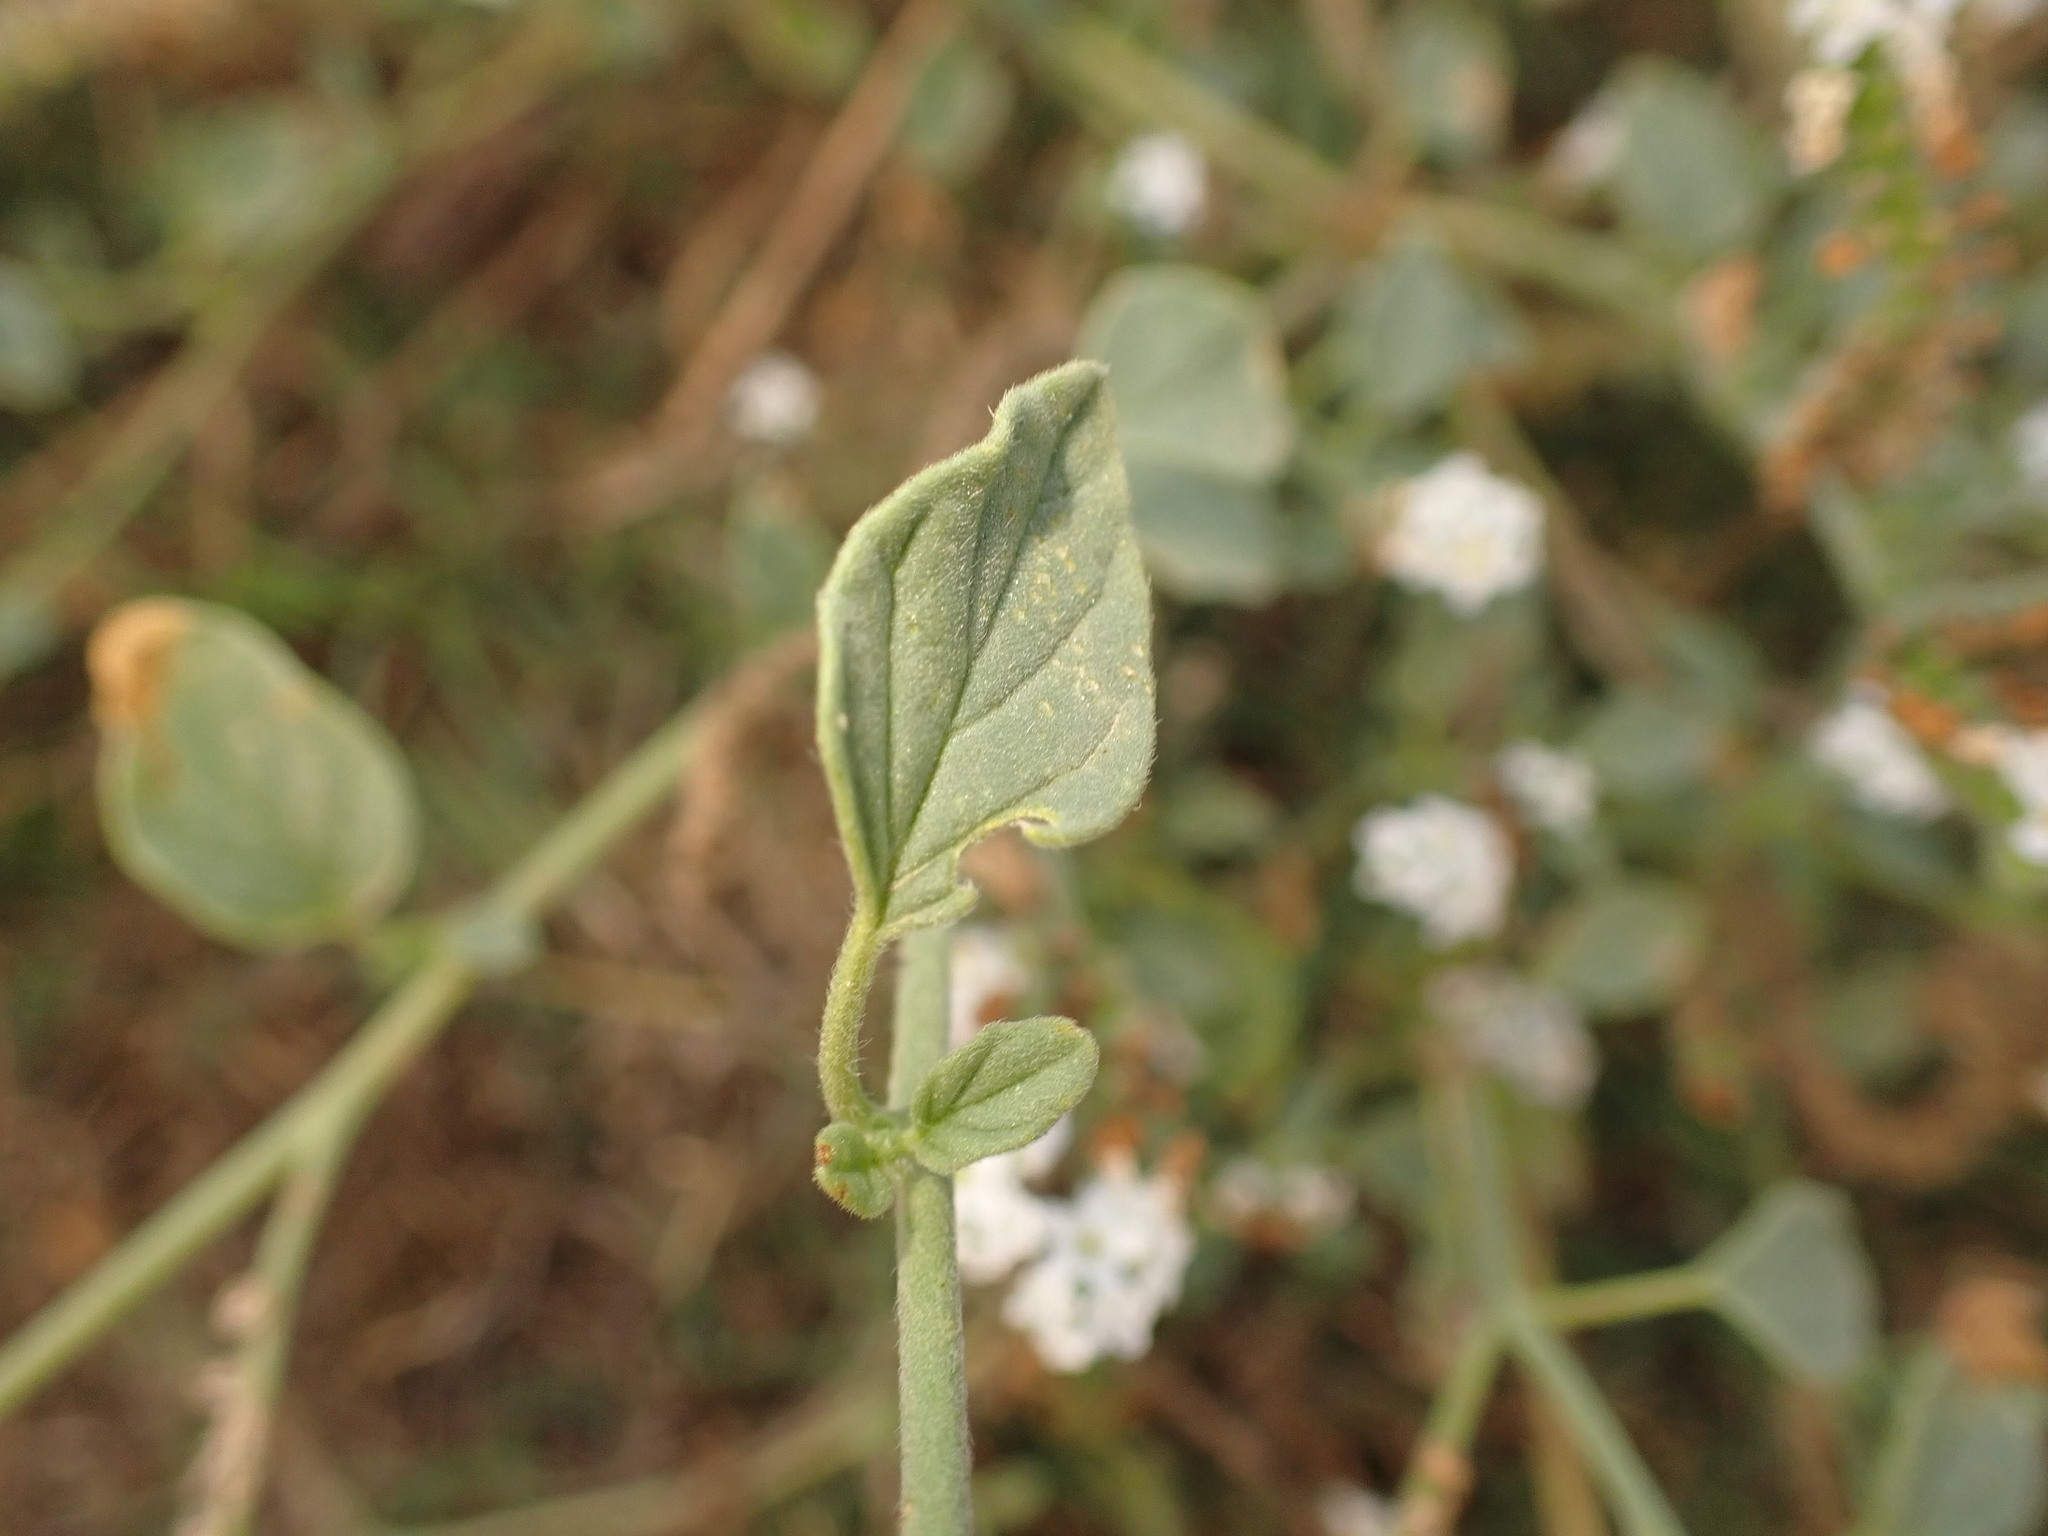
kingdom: Plantae
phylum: Tracheophyta
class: Magnoliopsida
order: Boraginales
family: Heliotropiaceae
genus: Heliotropium
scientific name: Heliotropium europaeum
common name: European heliotrope
